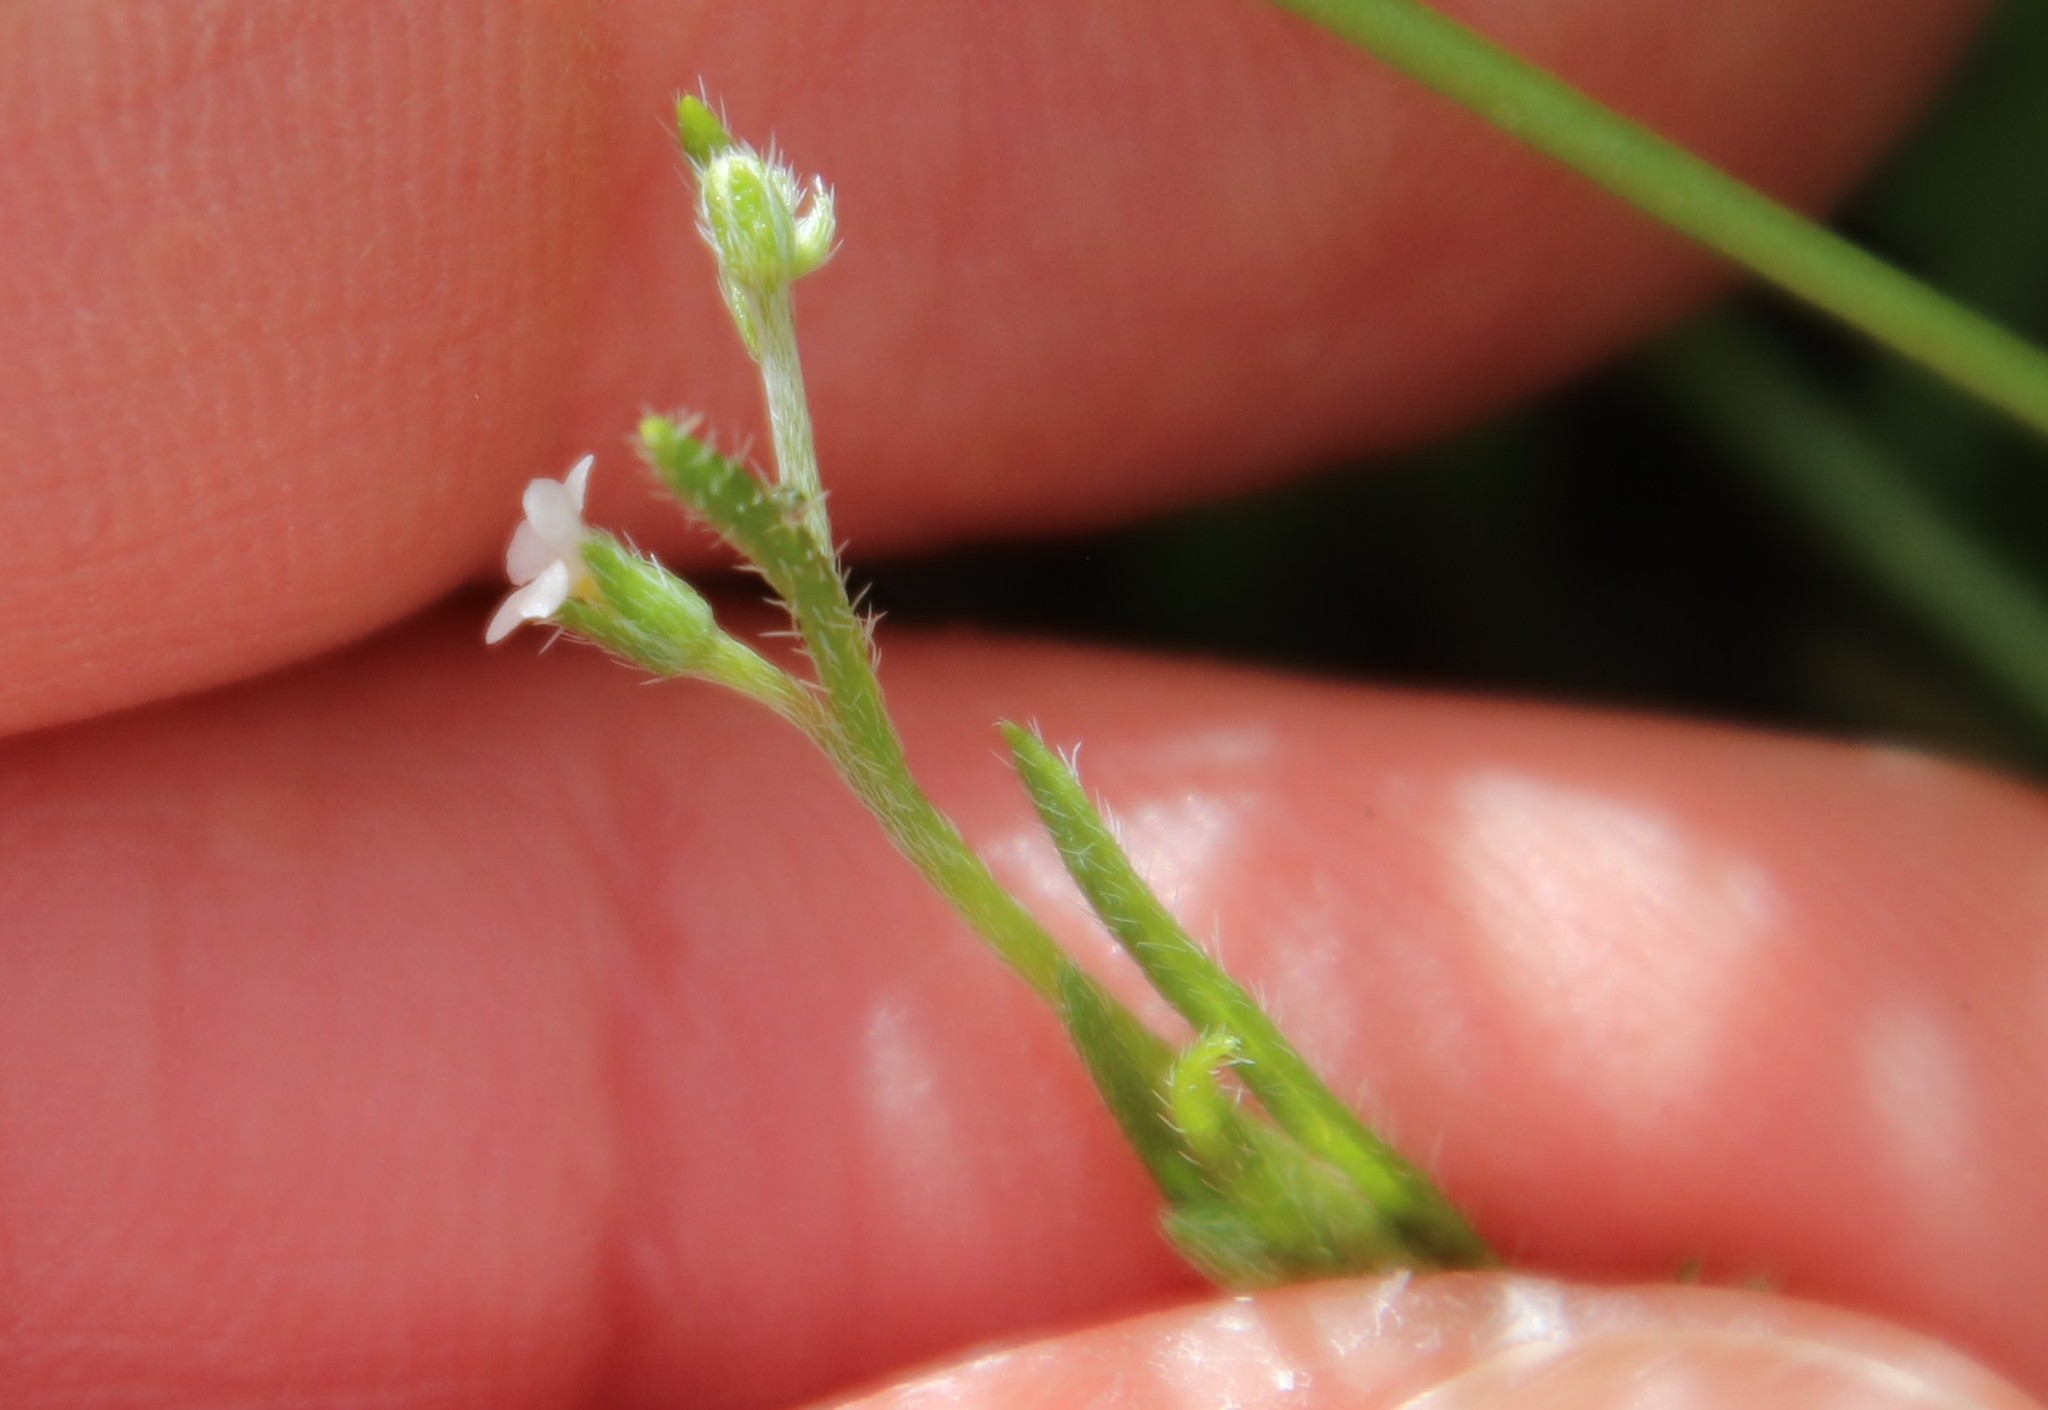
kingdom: Plantae
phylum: Tracheophyta
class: Magnoliopsida
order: Boraginales
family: Boraginaceae
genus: Pectocarya
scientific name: Pectocarya
